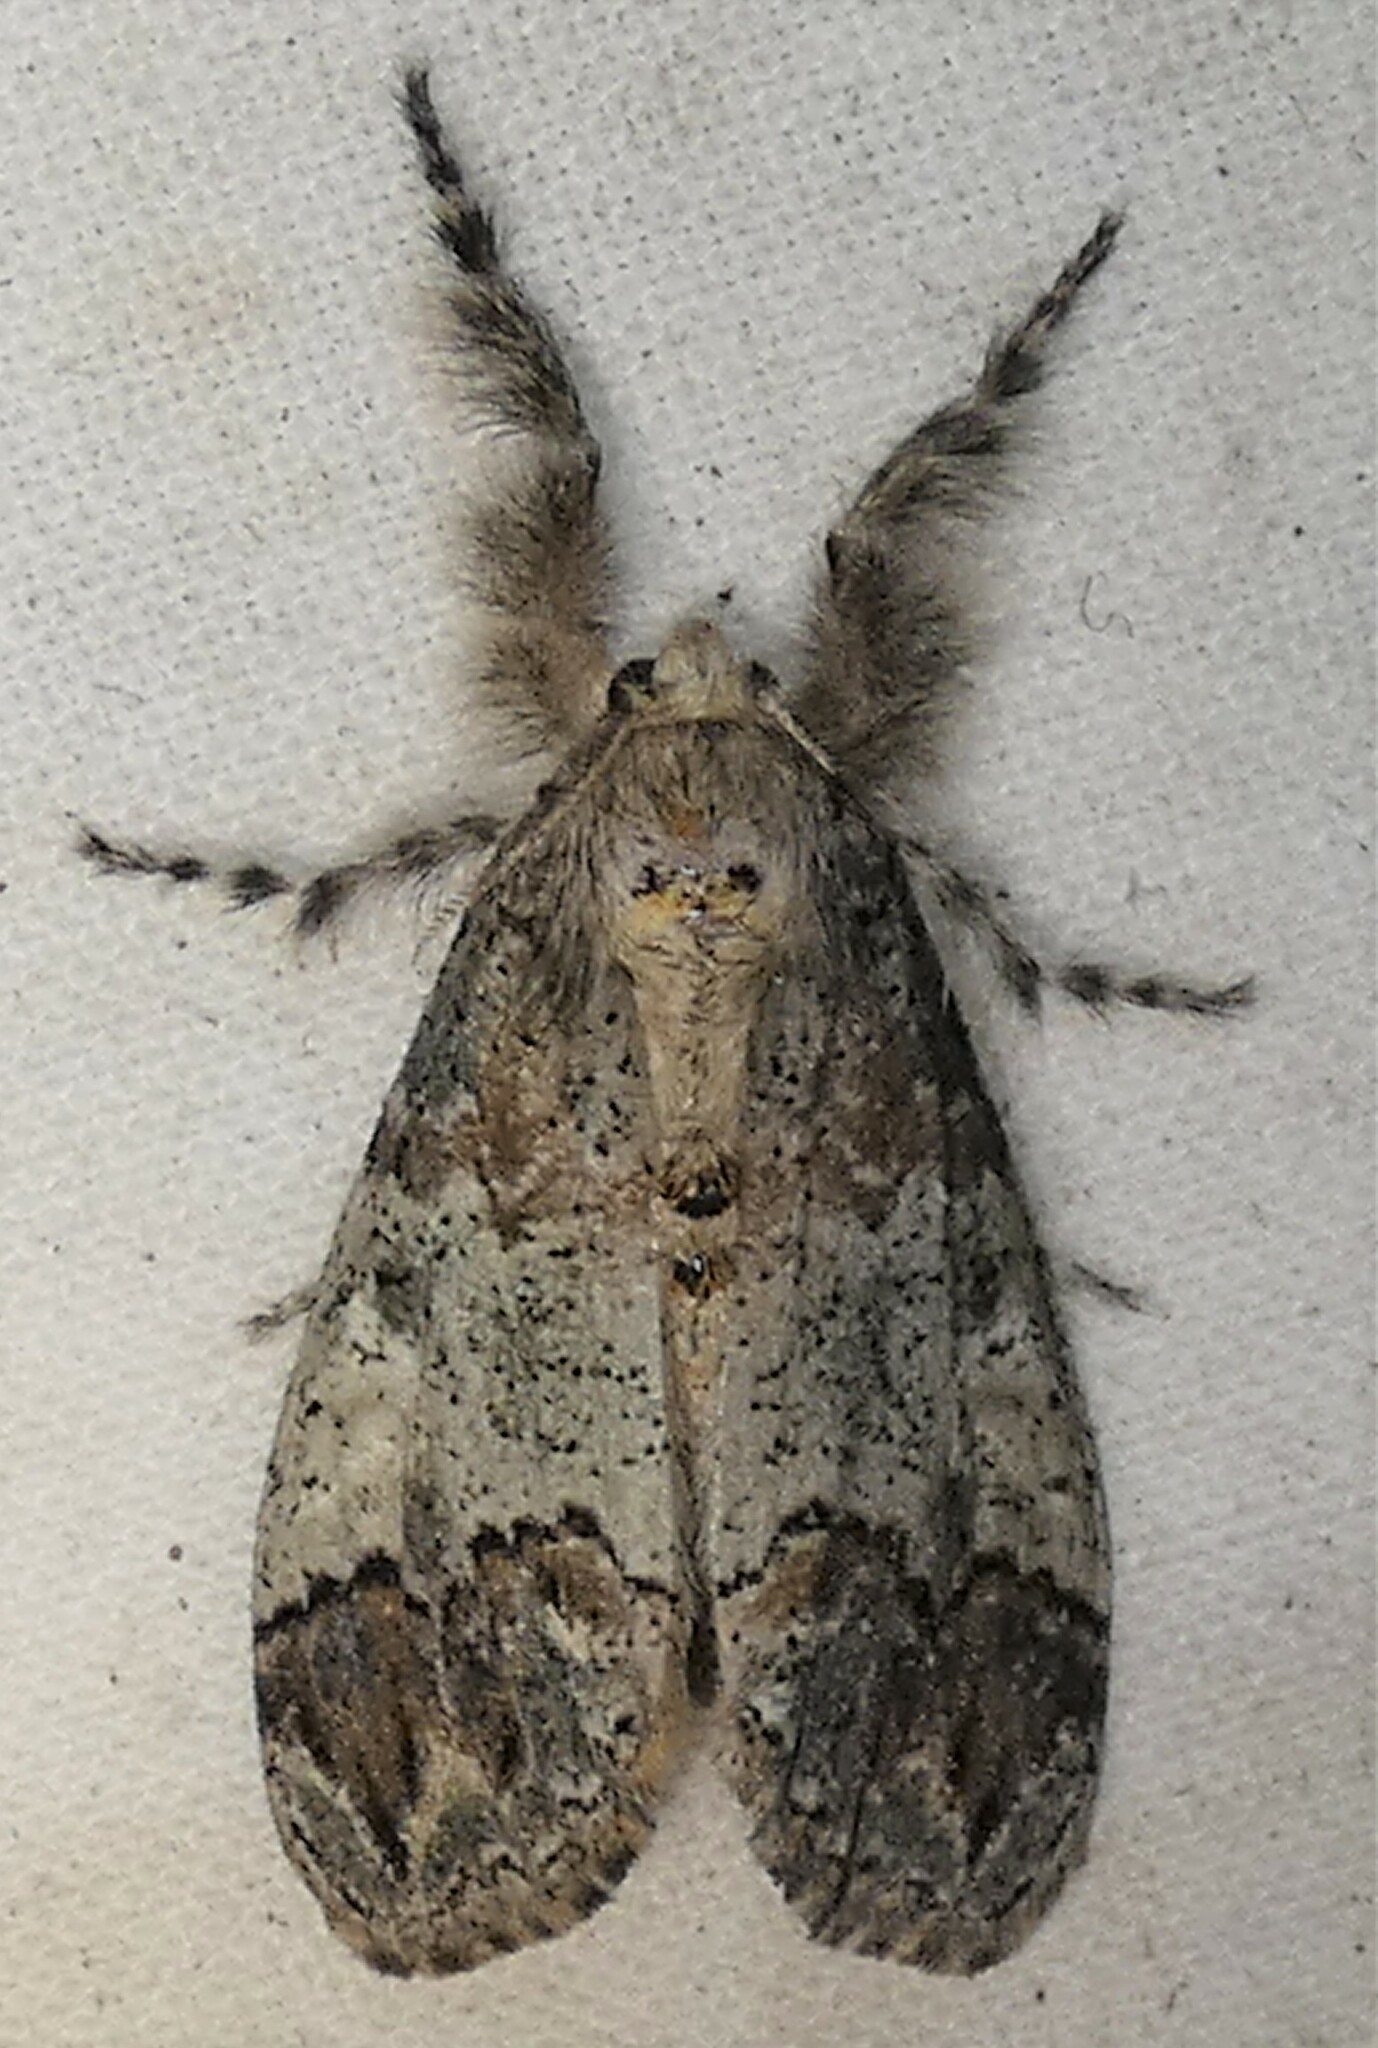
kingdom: Animalia
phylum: Arthropoda
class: Insecta
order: Lepidoptera
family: Erebidae
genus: Dasychira
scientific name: Dasychira meridionalis
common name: Southern tussock moth
